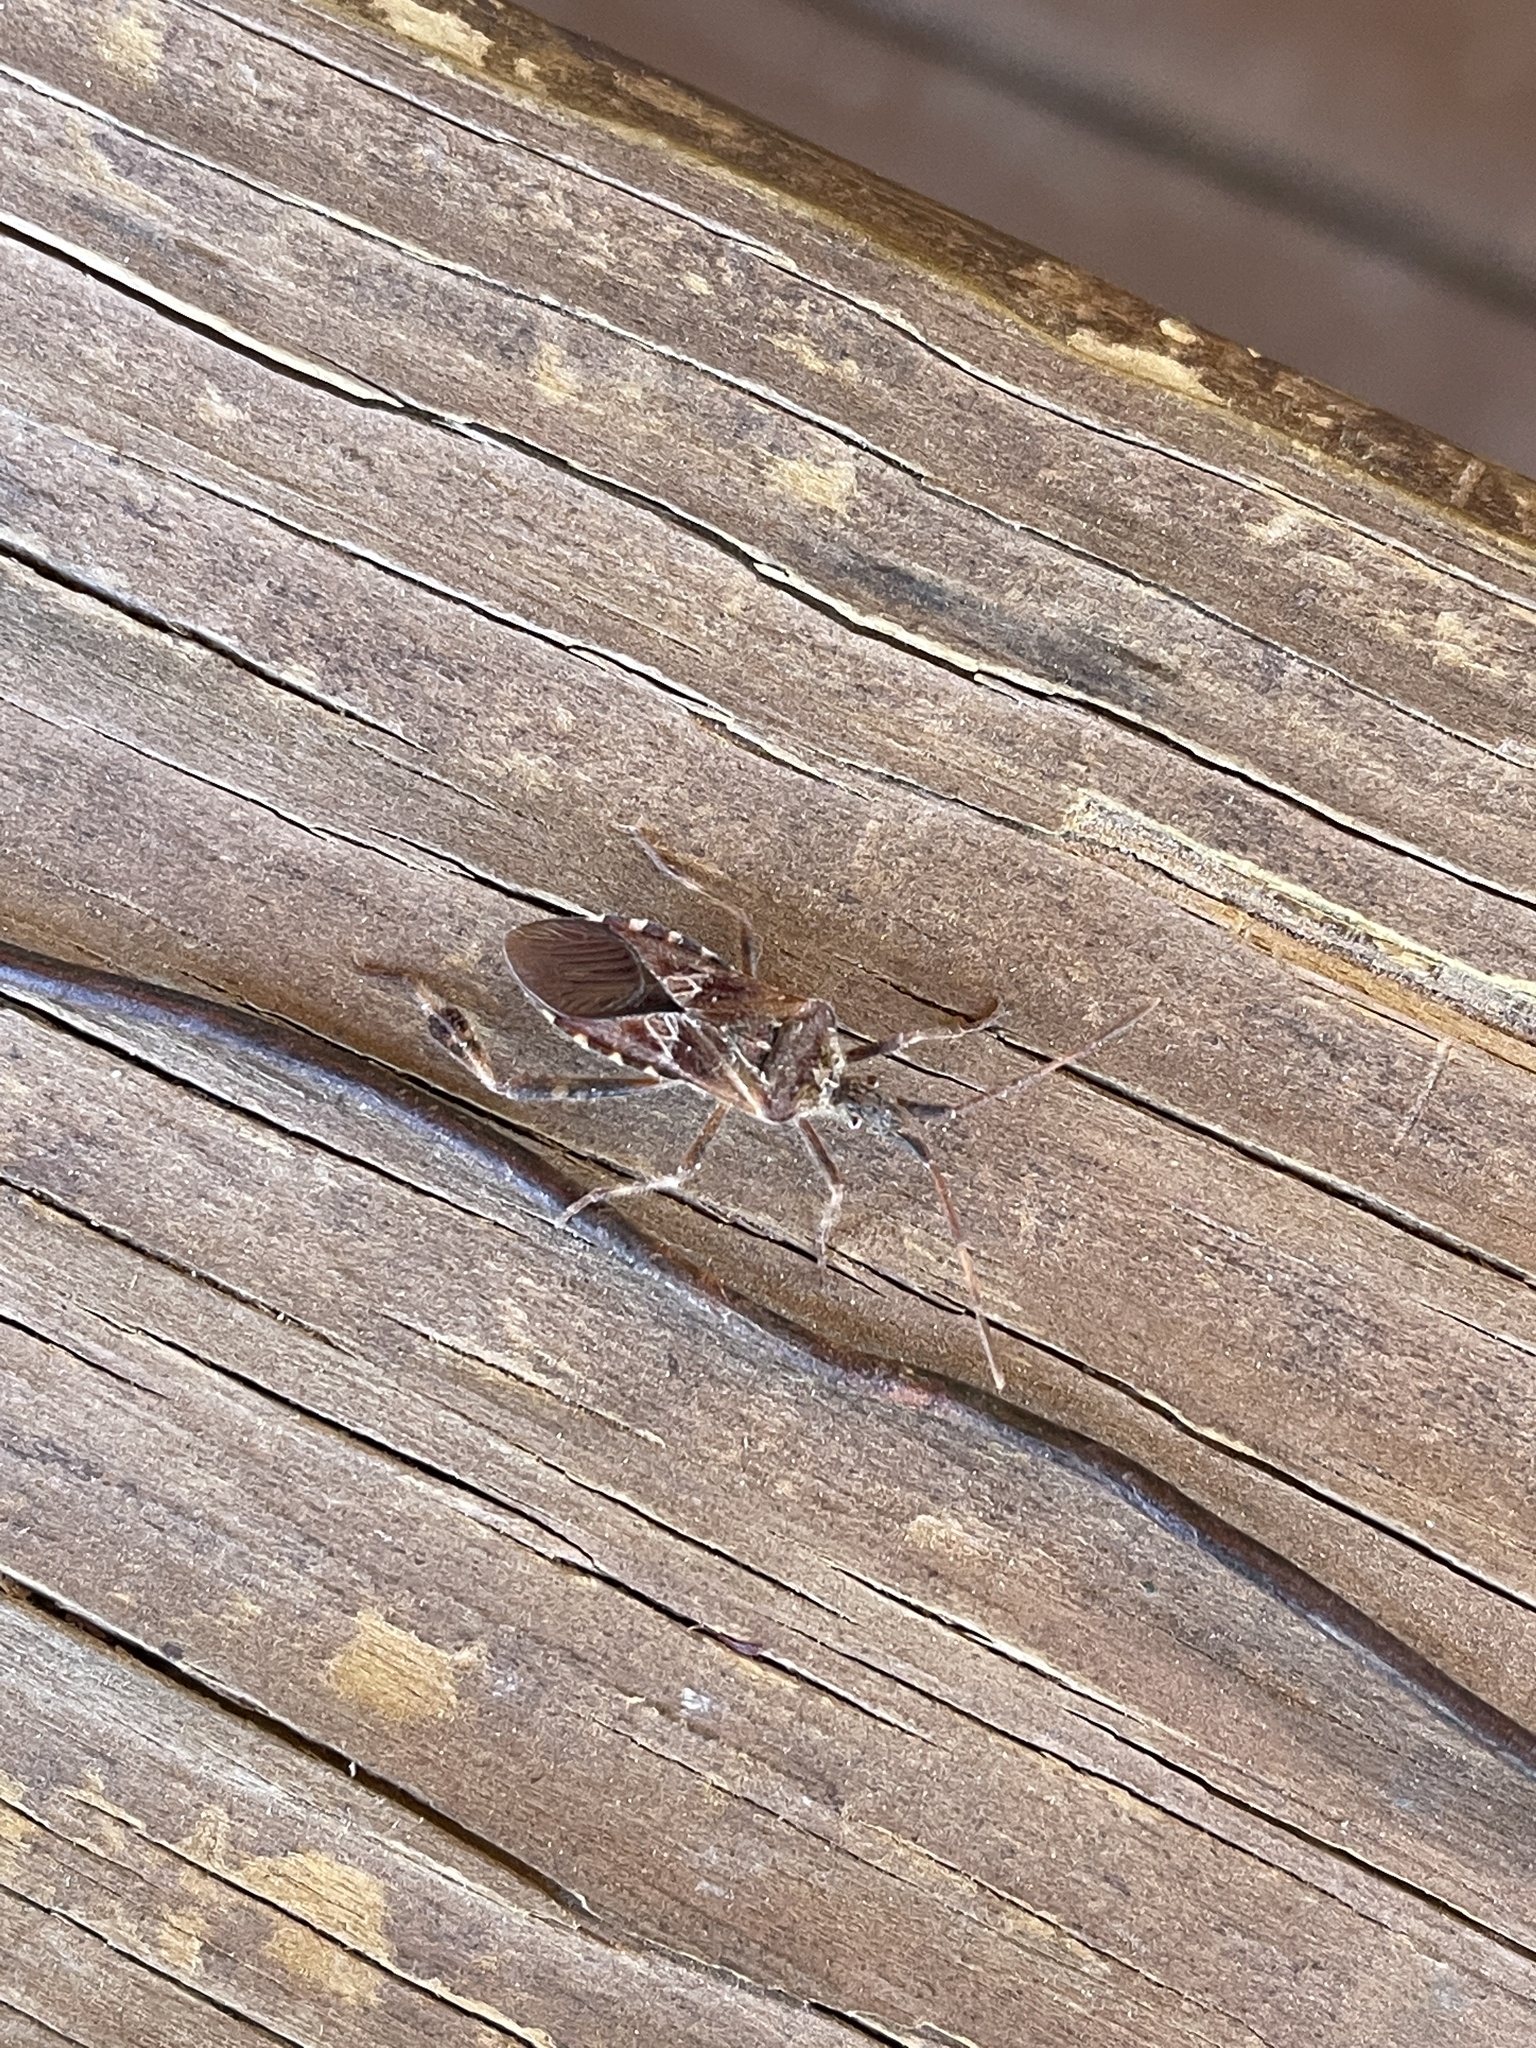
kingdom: Animalia
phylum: Arthropoda
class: Insecta
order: Hemiptera
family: Coreidae
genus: Leptoglossus
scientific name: Leptoglossus occidentalis
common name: Western conifer-seed bug
